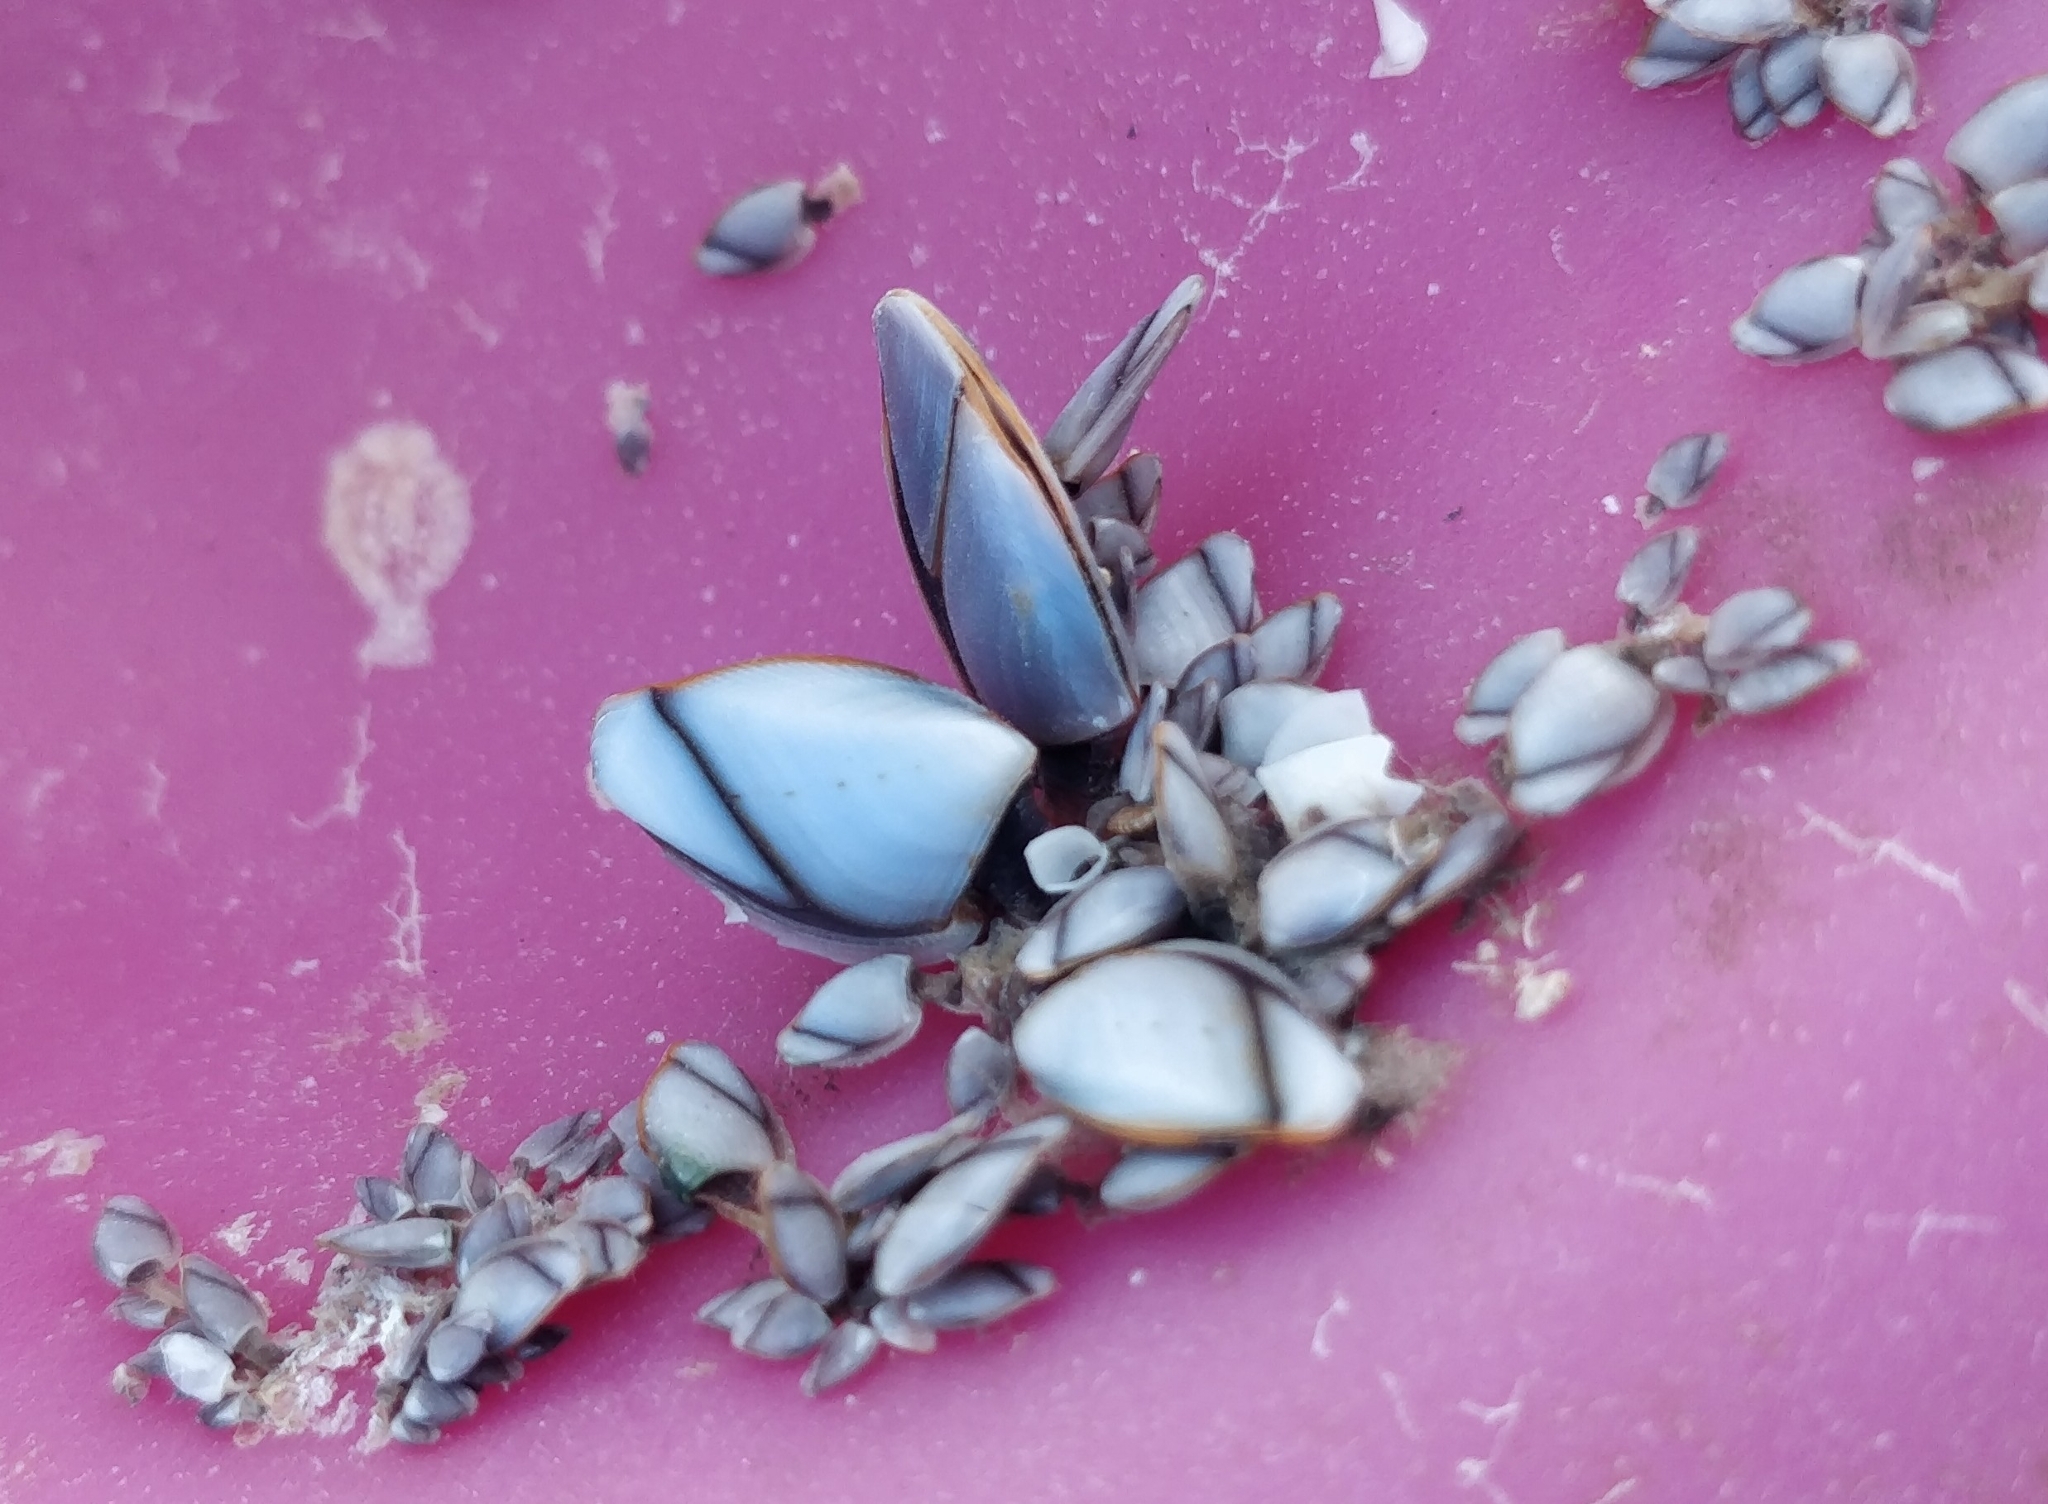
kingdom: Animalia
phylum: Arthropoda
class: Maxillopoda
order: Pedunculata
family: Lepadidae
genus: Lepas
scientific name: Lepas indica
